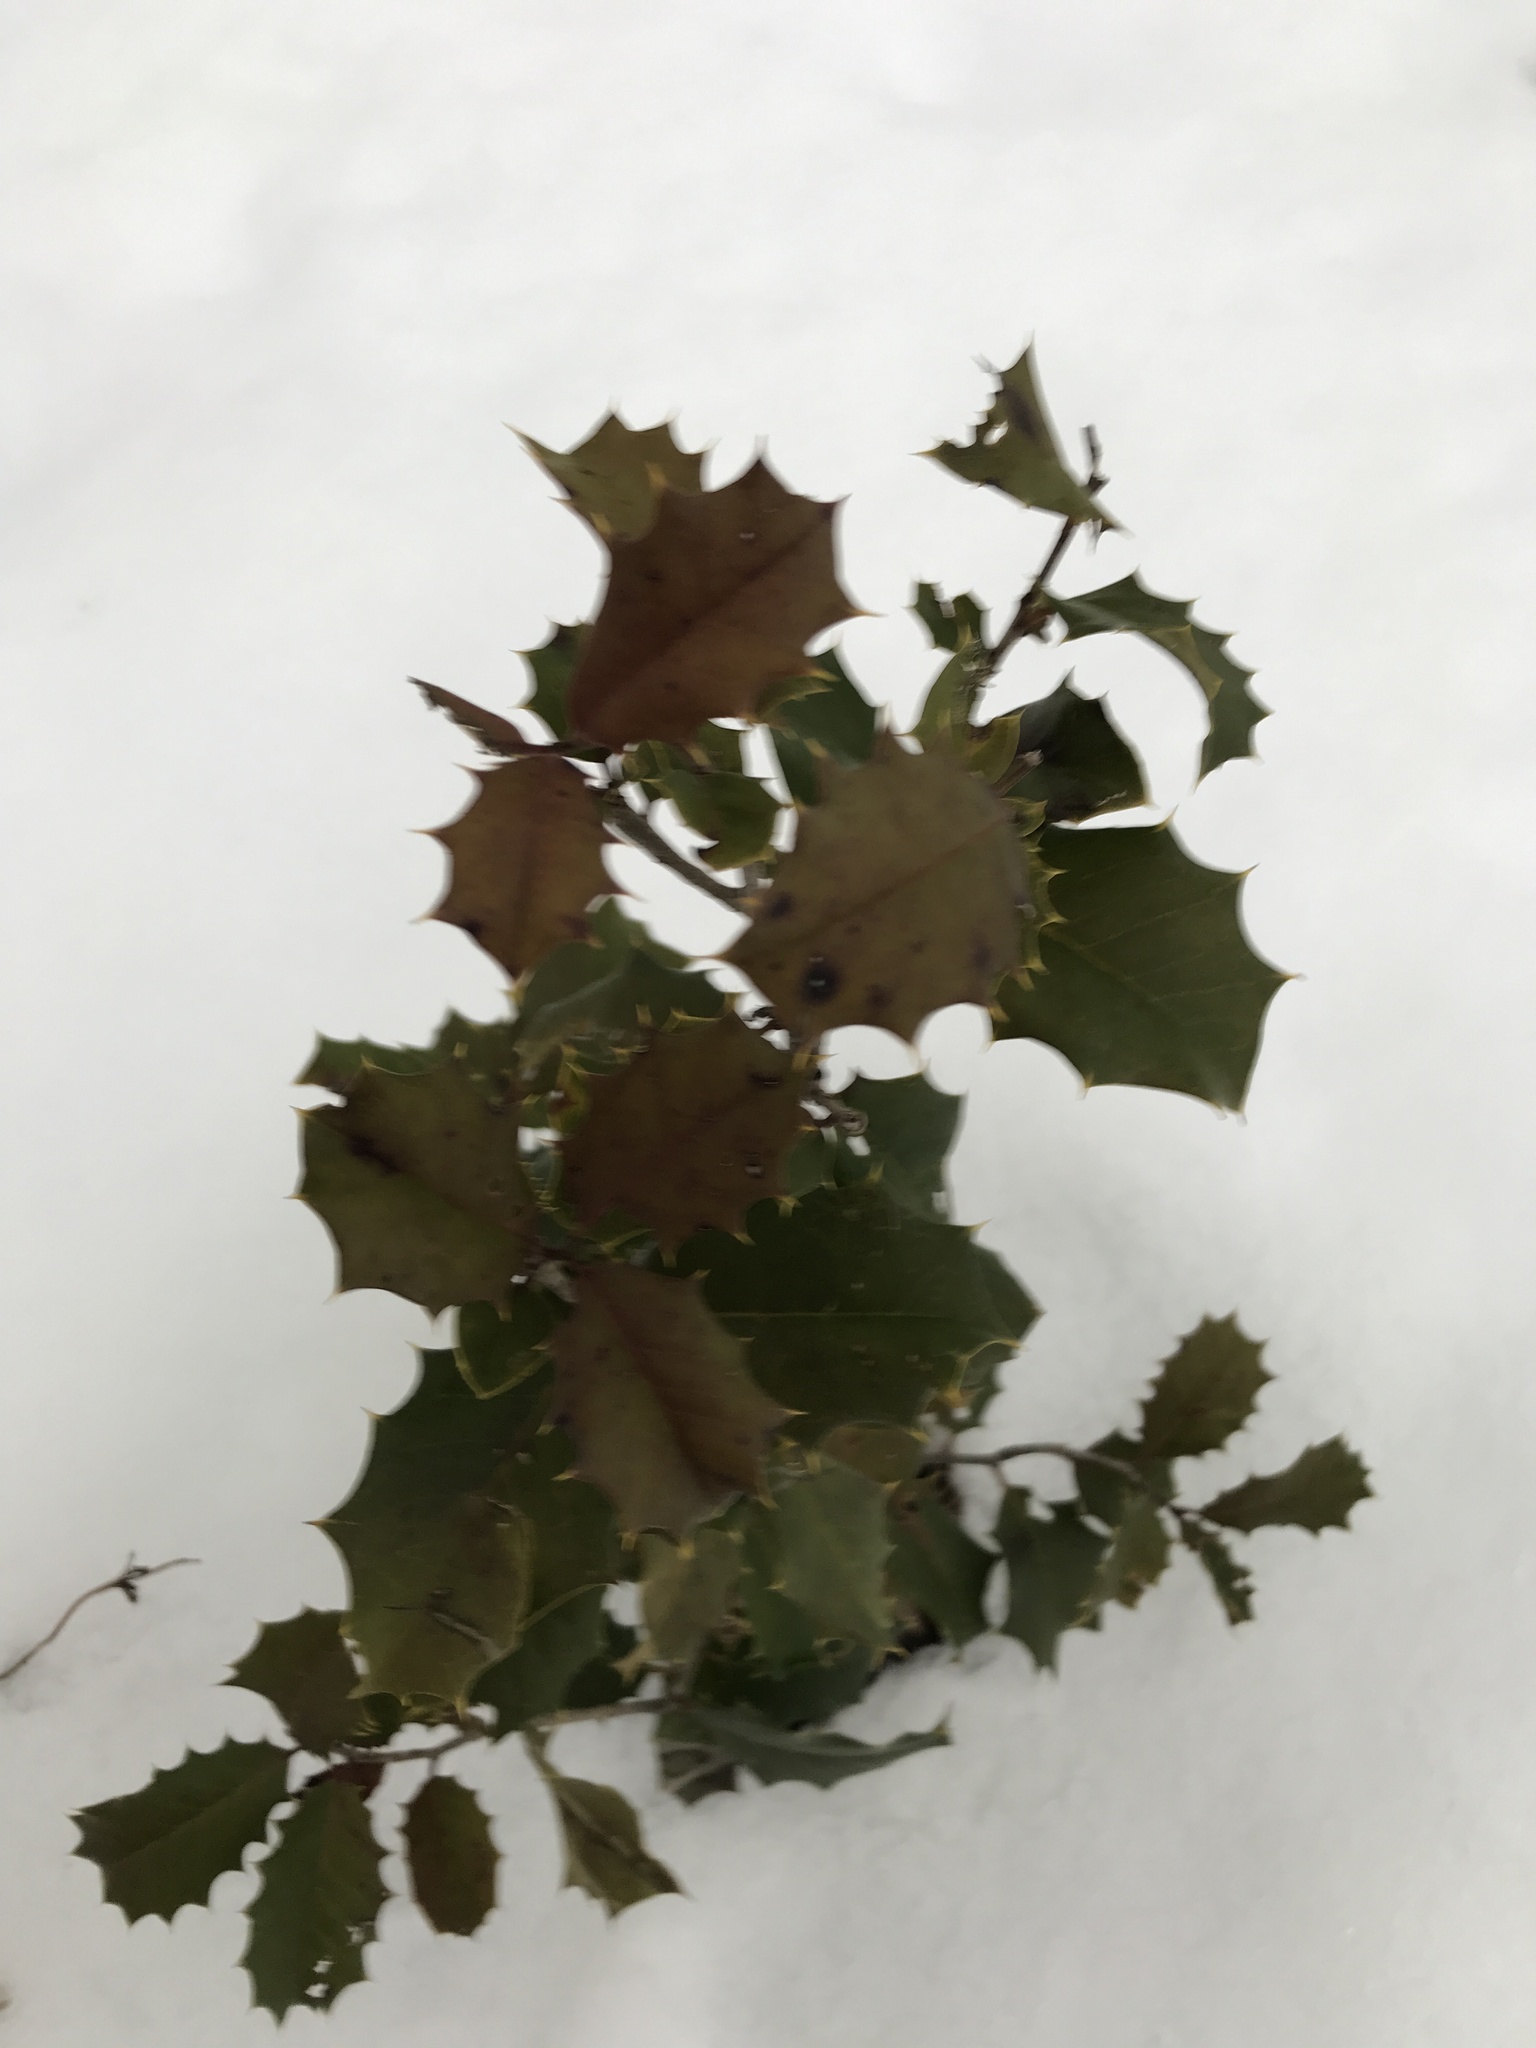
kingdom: Plantae
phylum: Tracheophyta
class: Magnoliopsida
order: Aquifoliales
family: Aquifoliaceae
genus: Ilex
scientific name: Ilex opaca
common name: American holly
